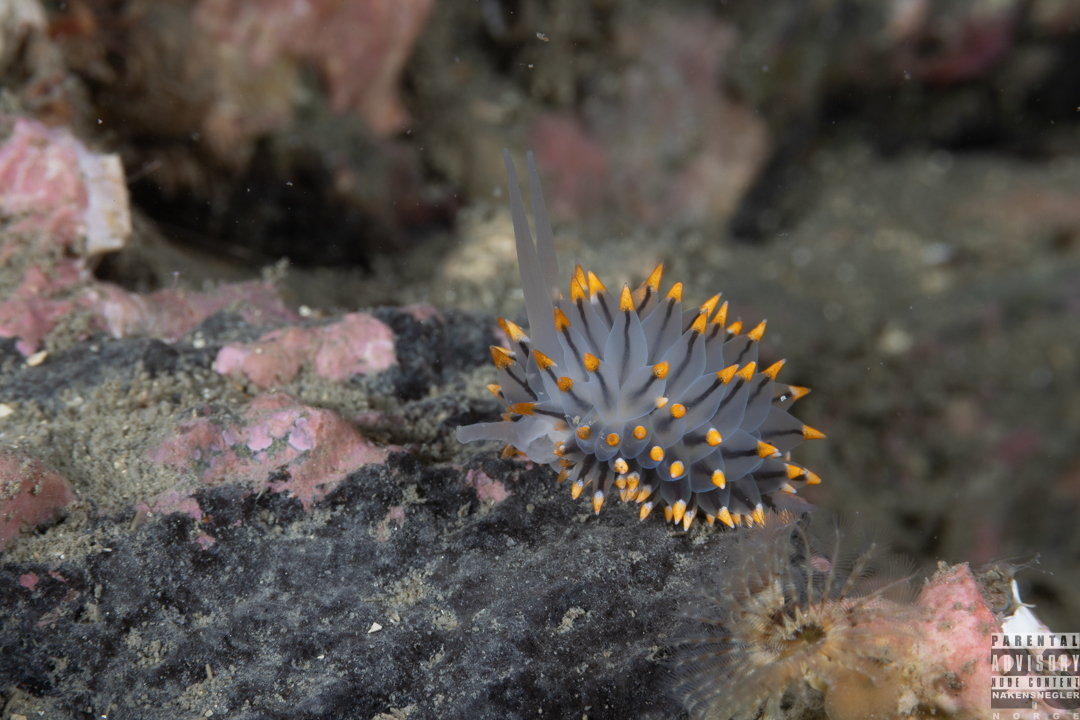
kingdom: Animalia
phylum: Mollusca
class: Gastropoda
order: Nudibranchia
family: Eubranchidae
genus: Eubranchus
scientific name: Eubranchus tricolor
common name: Painted balloon aeolis
